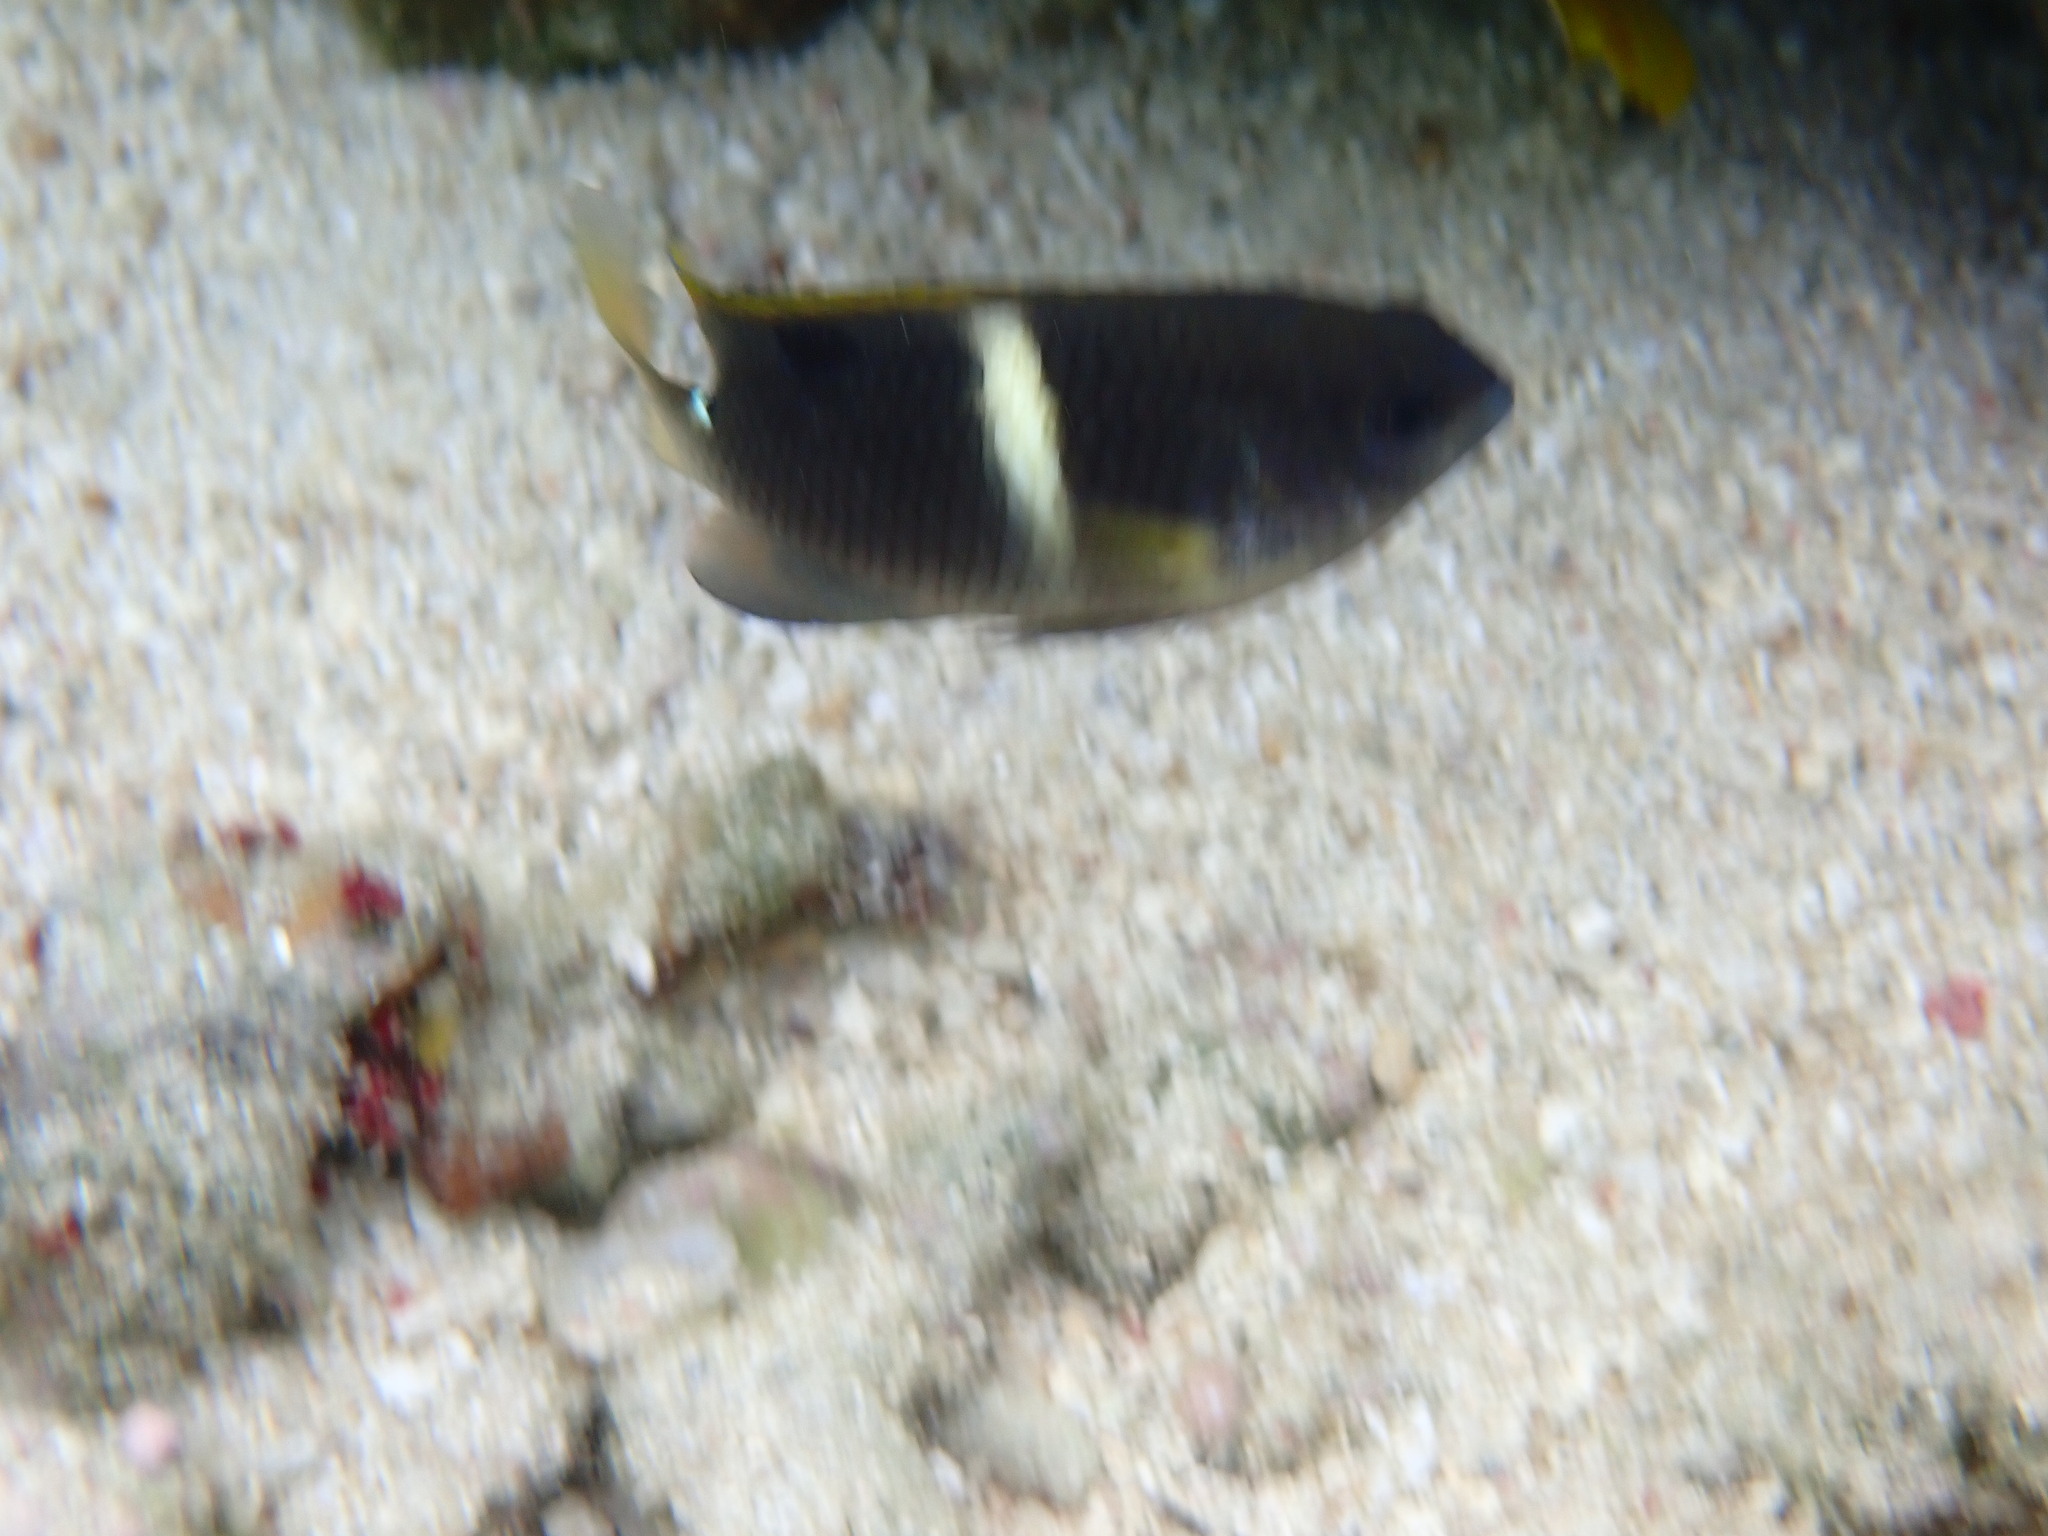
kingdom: Animalia
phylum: Chordata
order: Perciformes
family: Pomacentridae
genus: Chrysiptera
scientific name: Chrysiptera biocellata
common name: Twinspot damselfish
